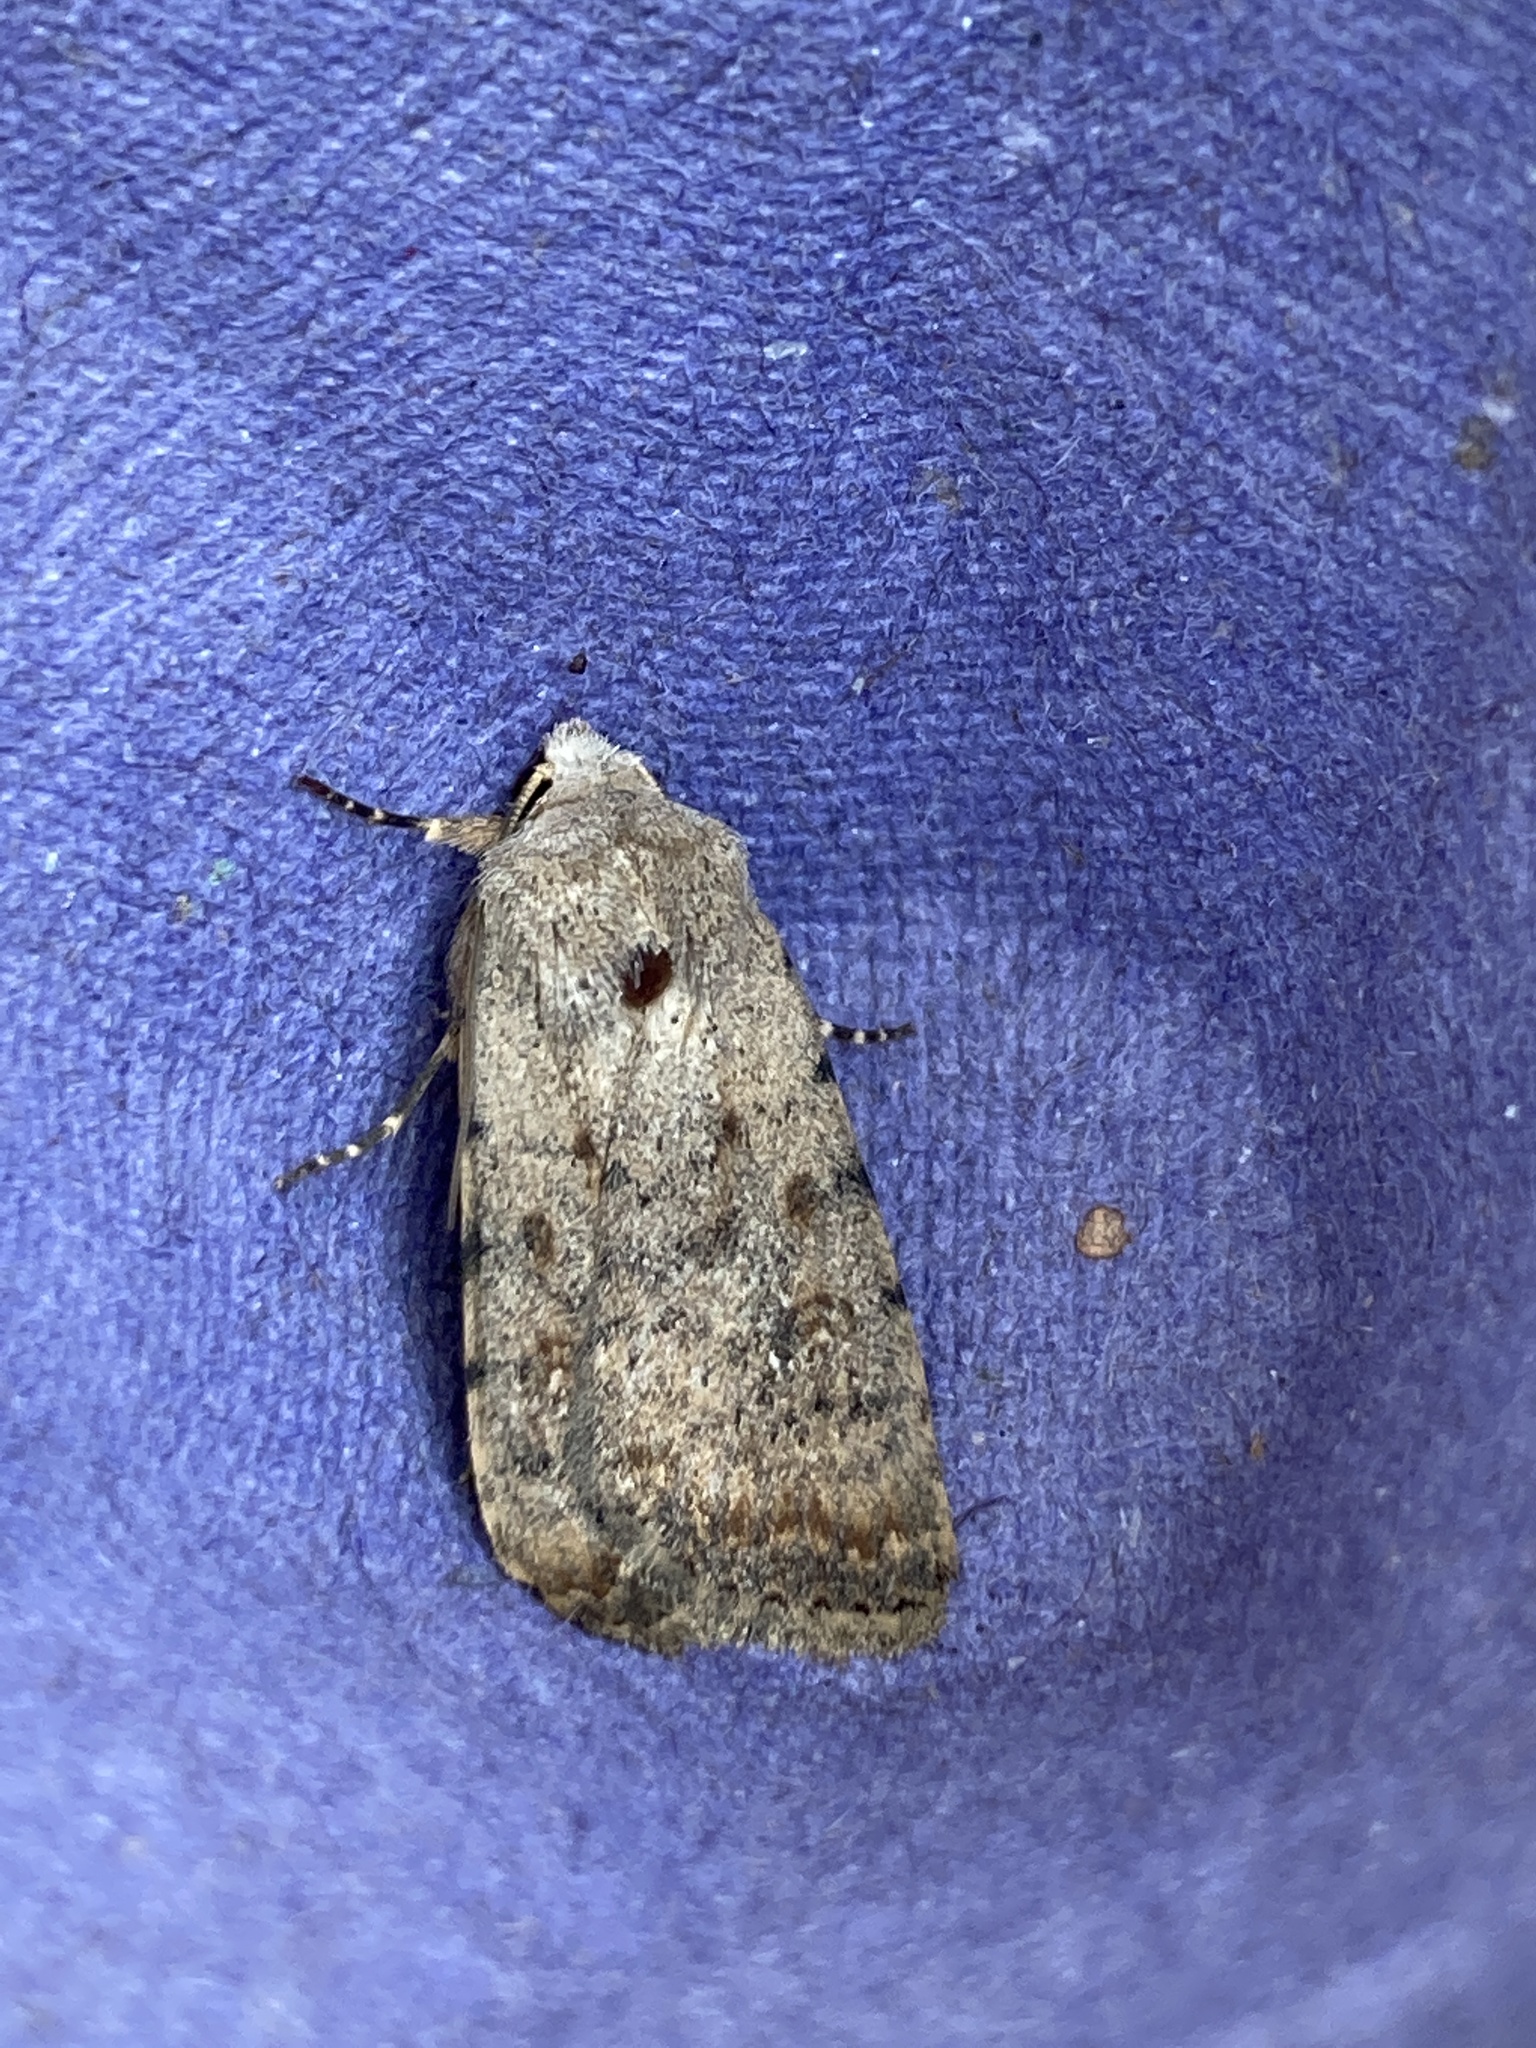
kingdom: Animalia
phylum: Arthropoda
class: Insecta
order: Lepidoptera
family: Noctuidae
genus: Caradrina
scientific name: Caradrina clavipalpis
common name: Pale mottled willow
